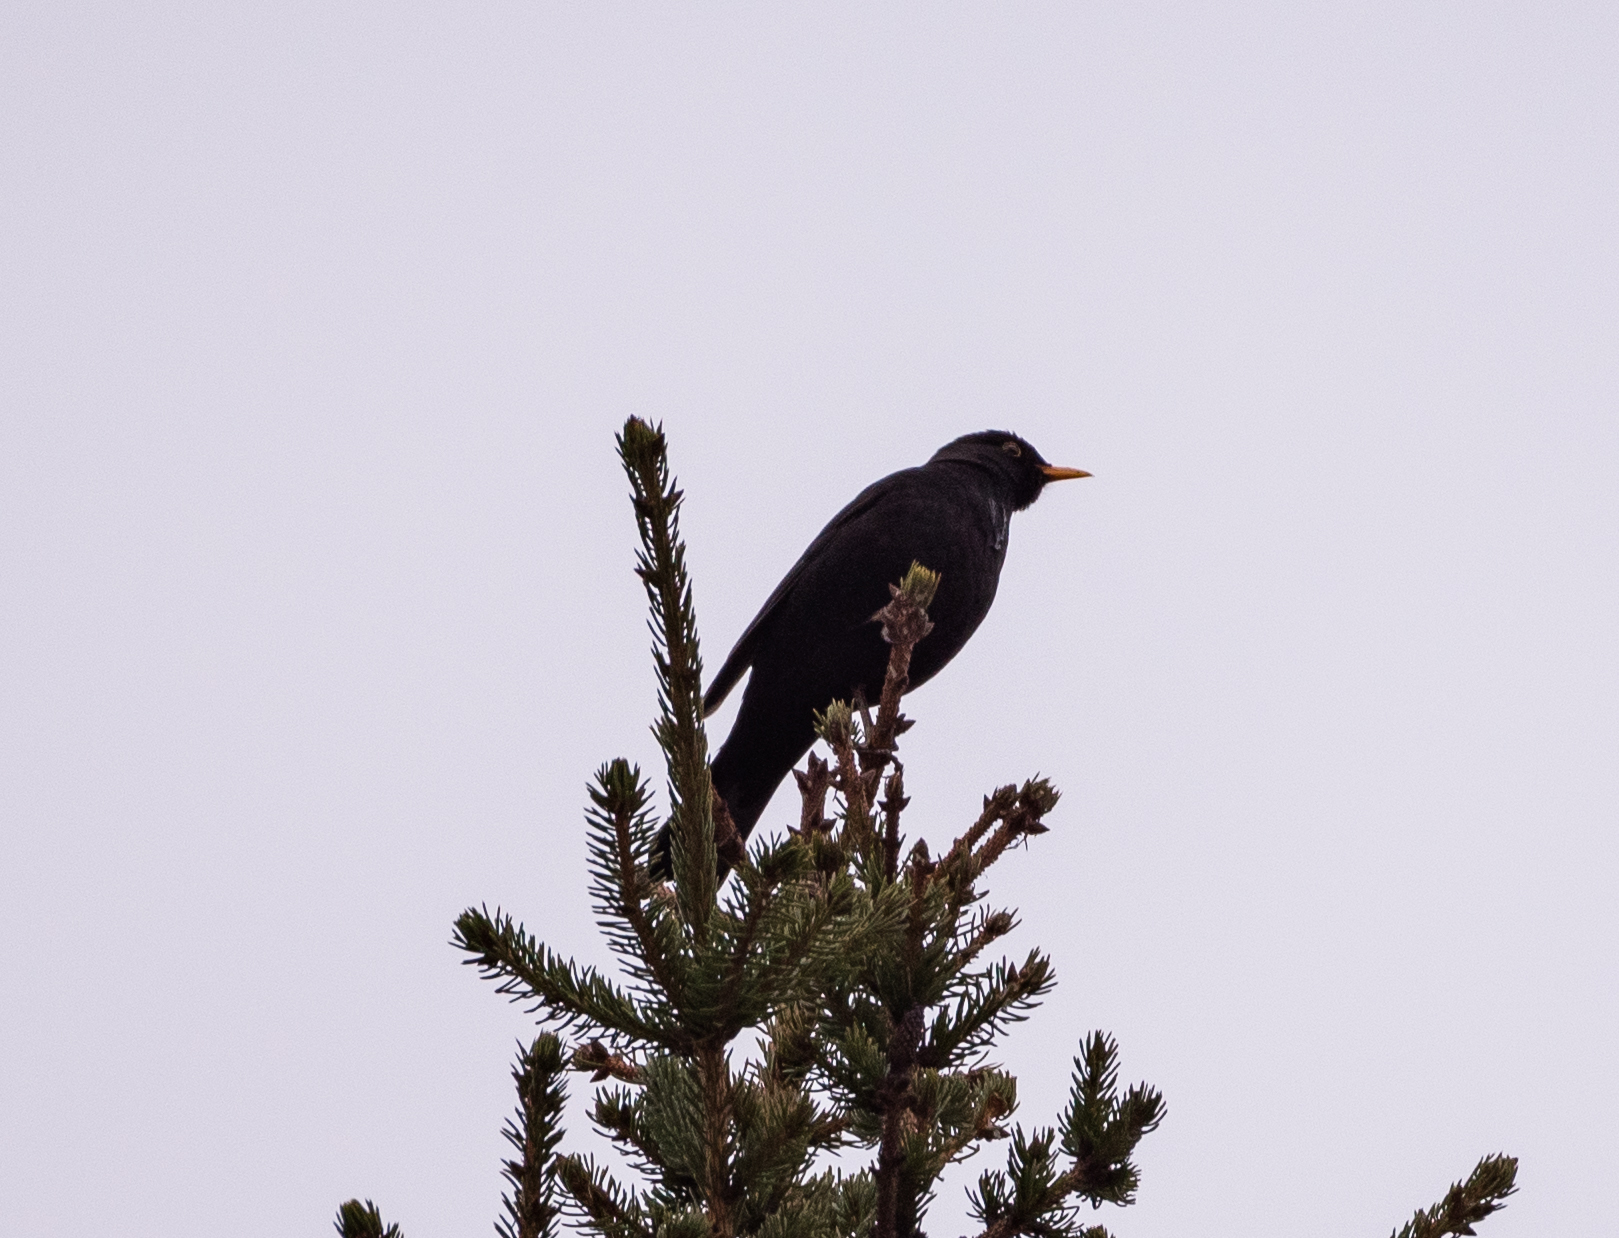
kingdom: Animalia
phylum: Chordata
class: Aves
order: Passeriformes
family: Turdidae
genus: Turdus
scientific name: Turdus merula
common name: Common blackbird
